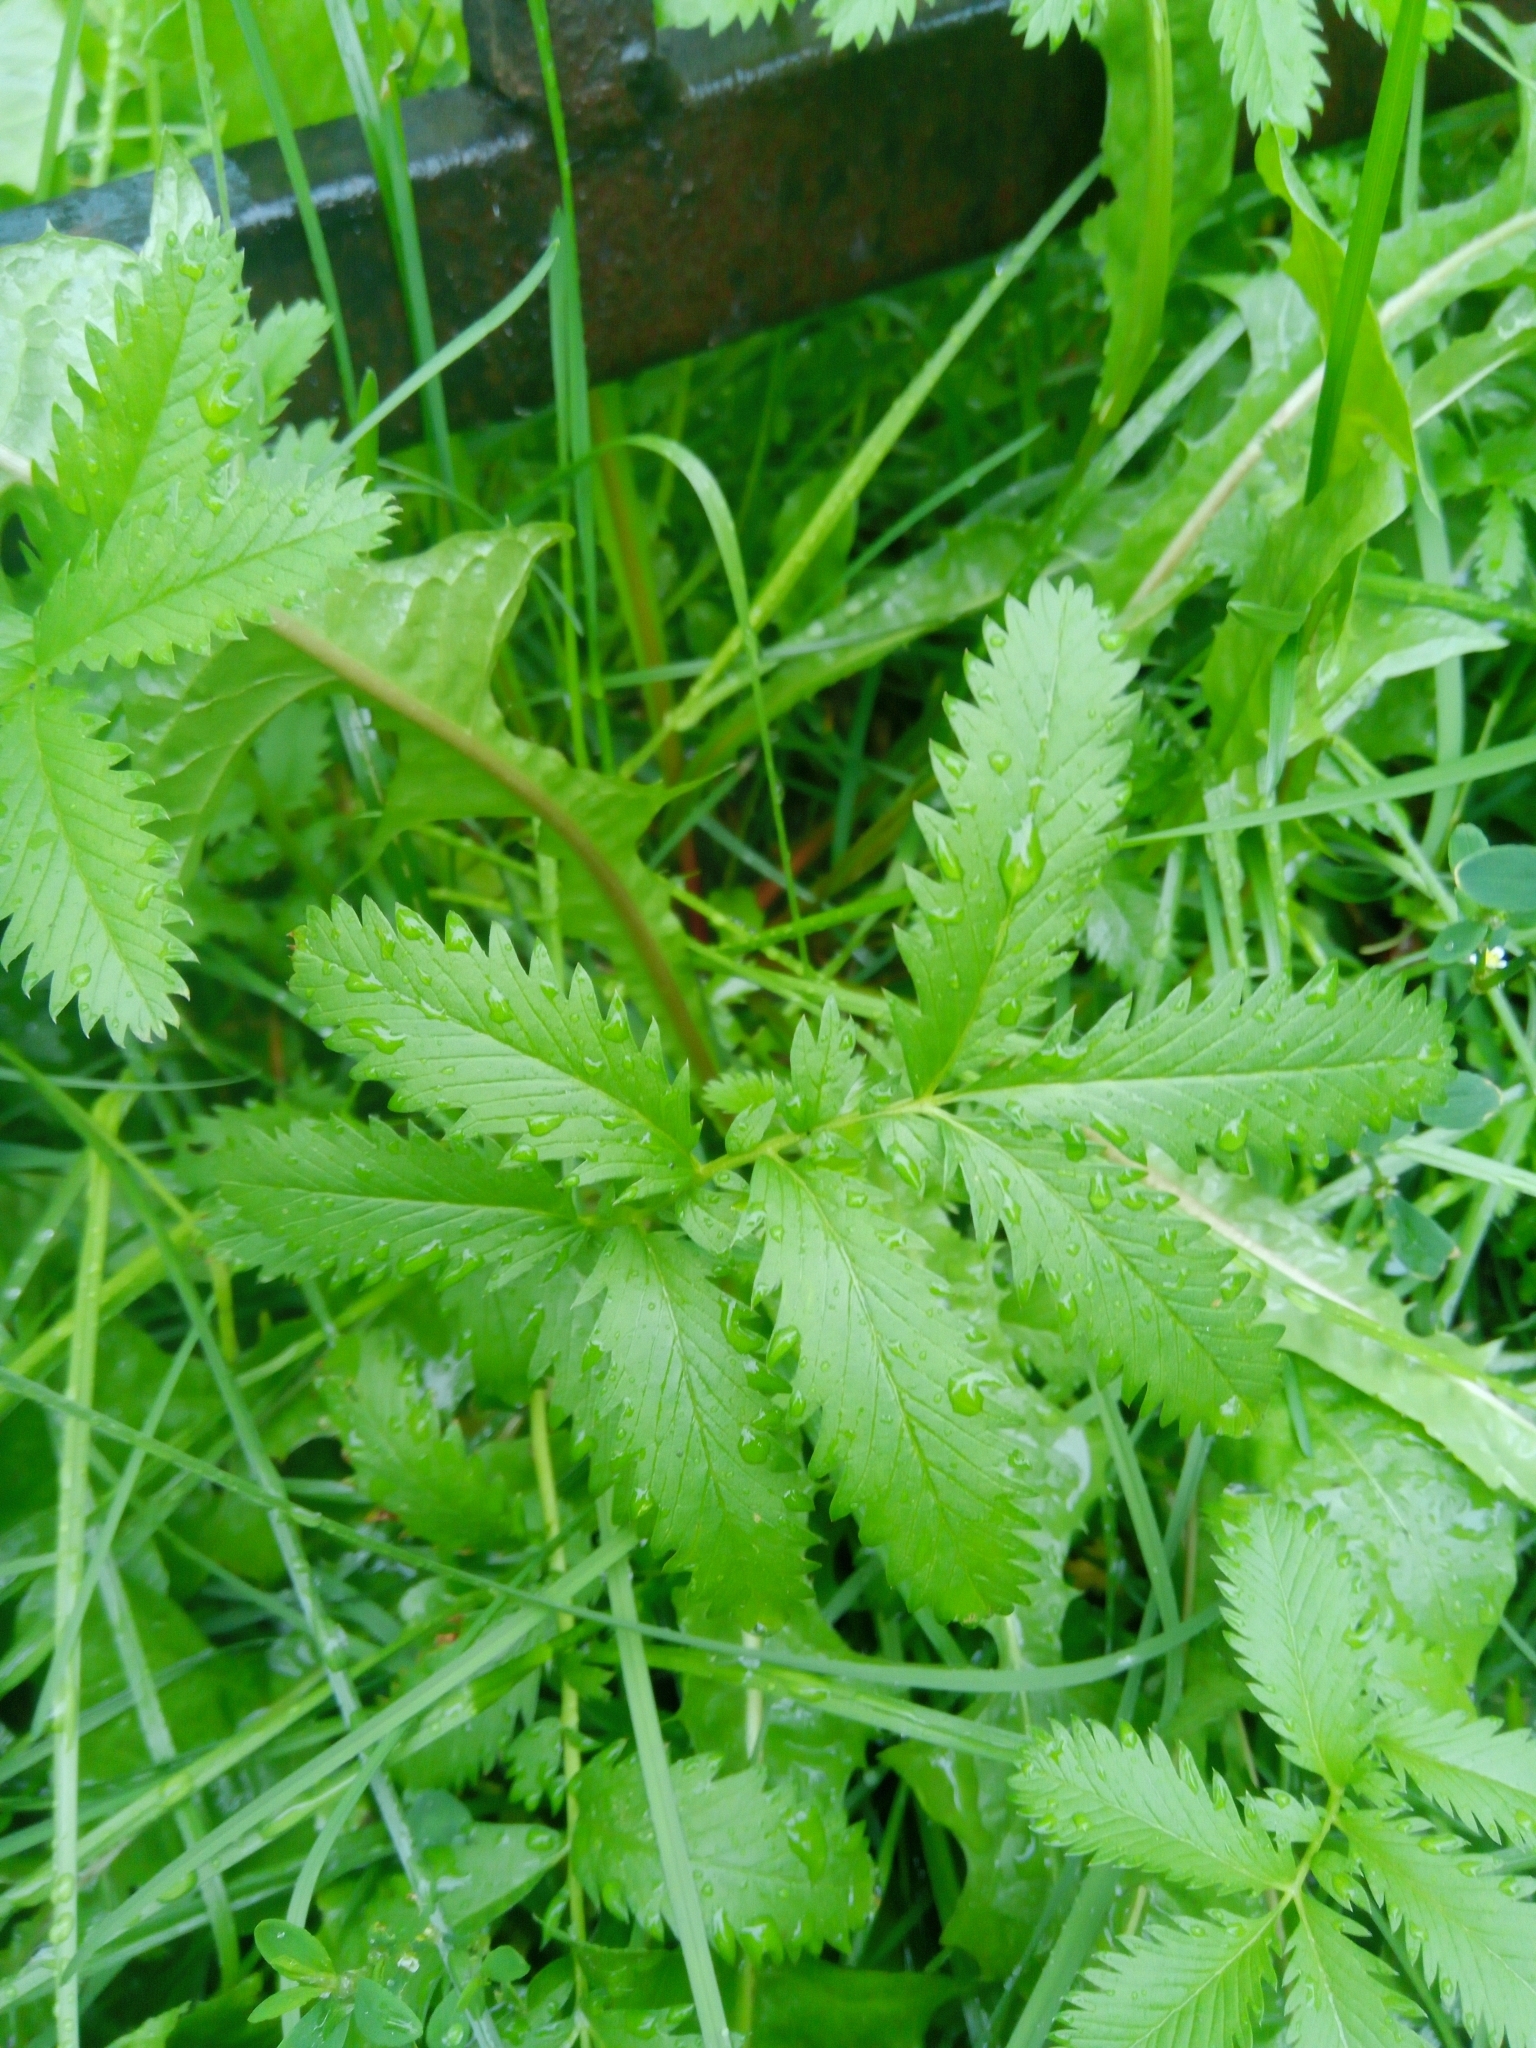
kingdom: Plantae
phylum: Tracheophyta
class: Magnoliopsida
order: Rosales
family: Rosaceae
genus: Argentina
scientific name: Argentina anserina
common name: Common silverweed
